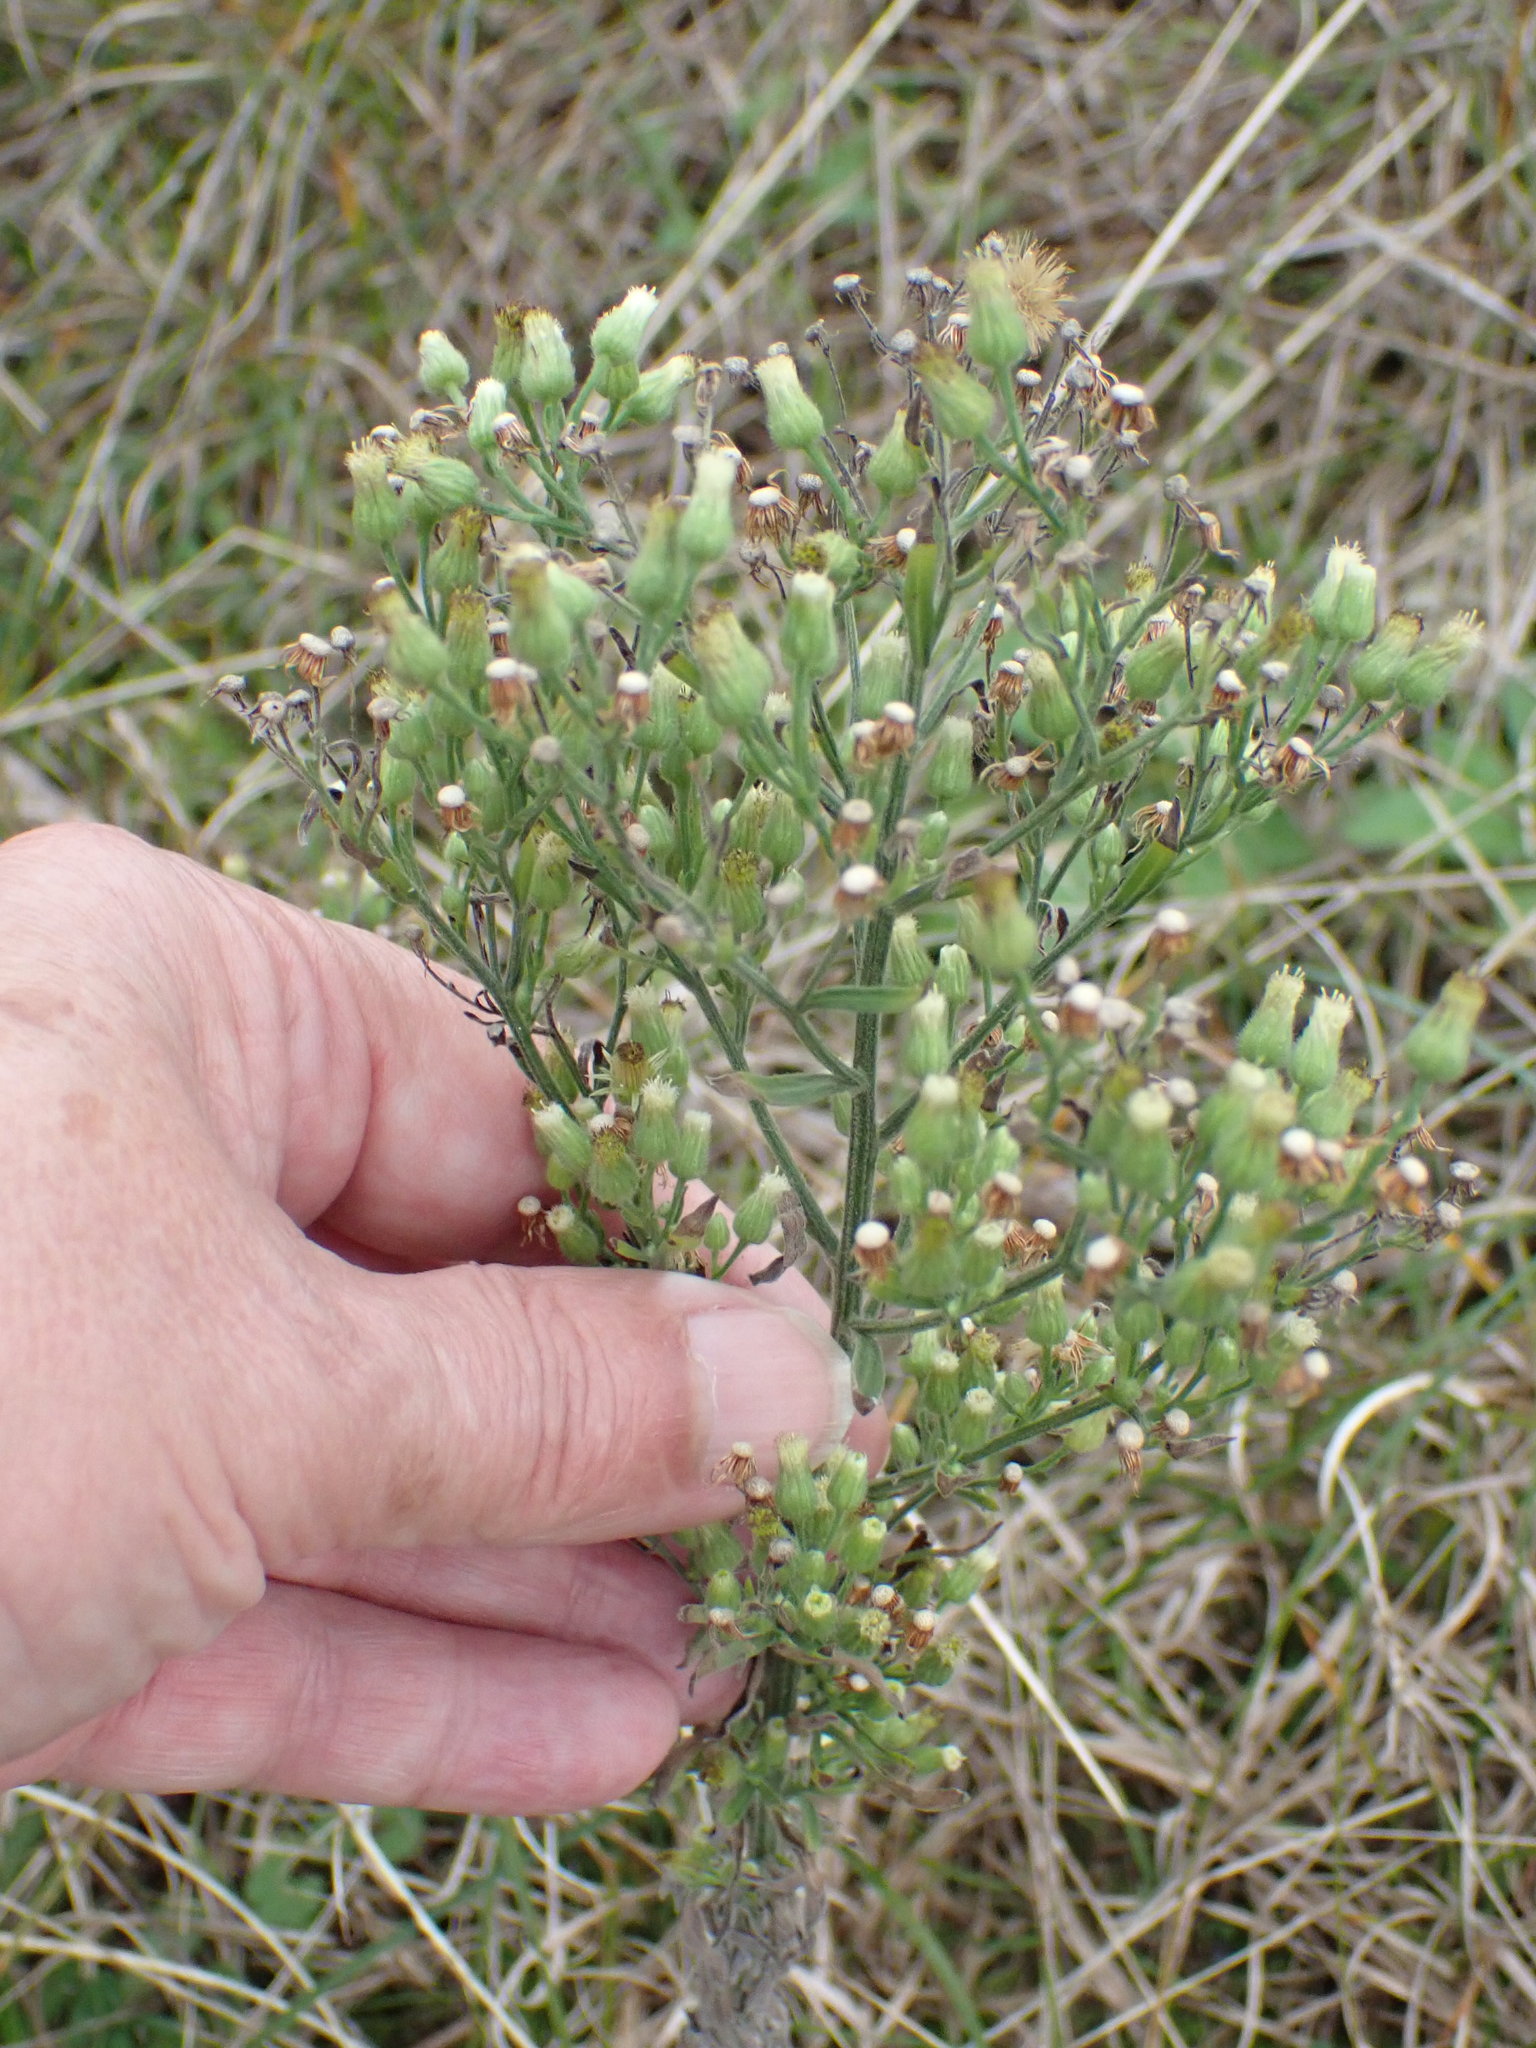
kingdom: Plantae
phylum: Tracheophyta
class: Magnoliopsida
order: Asterales
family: Asteraceae
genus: Erigeron
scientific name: Erigeron sumatrensis
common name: Daisy
